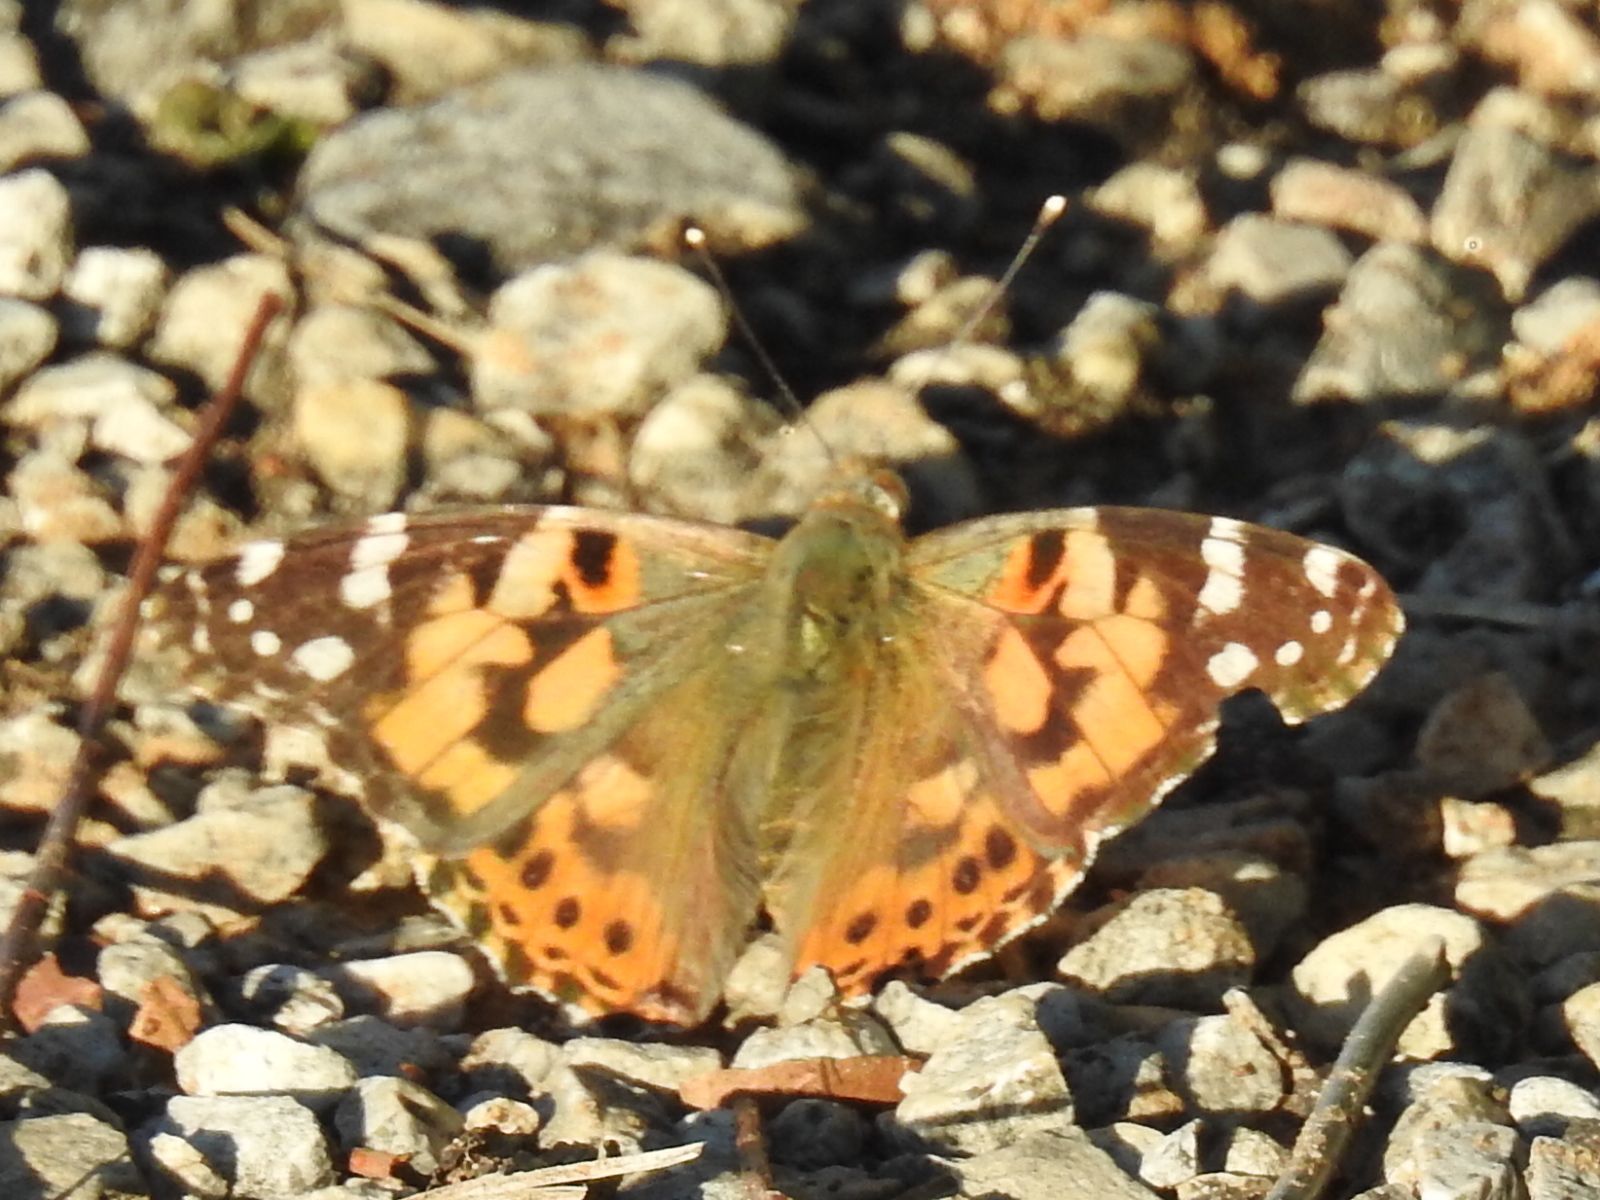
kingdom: Animalia
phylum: Arthropoda
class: Insecta
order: Lepidoptera
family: Nymphalidae
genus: Vanessa
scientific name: Vanessa cardui
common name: Painted lady
